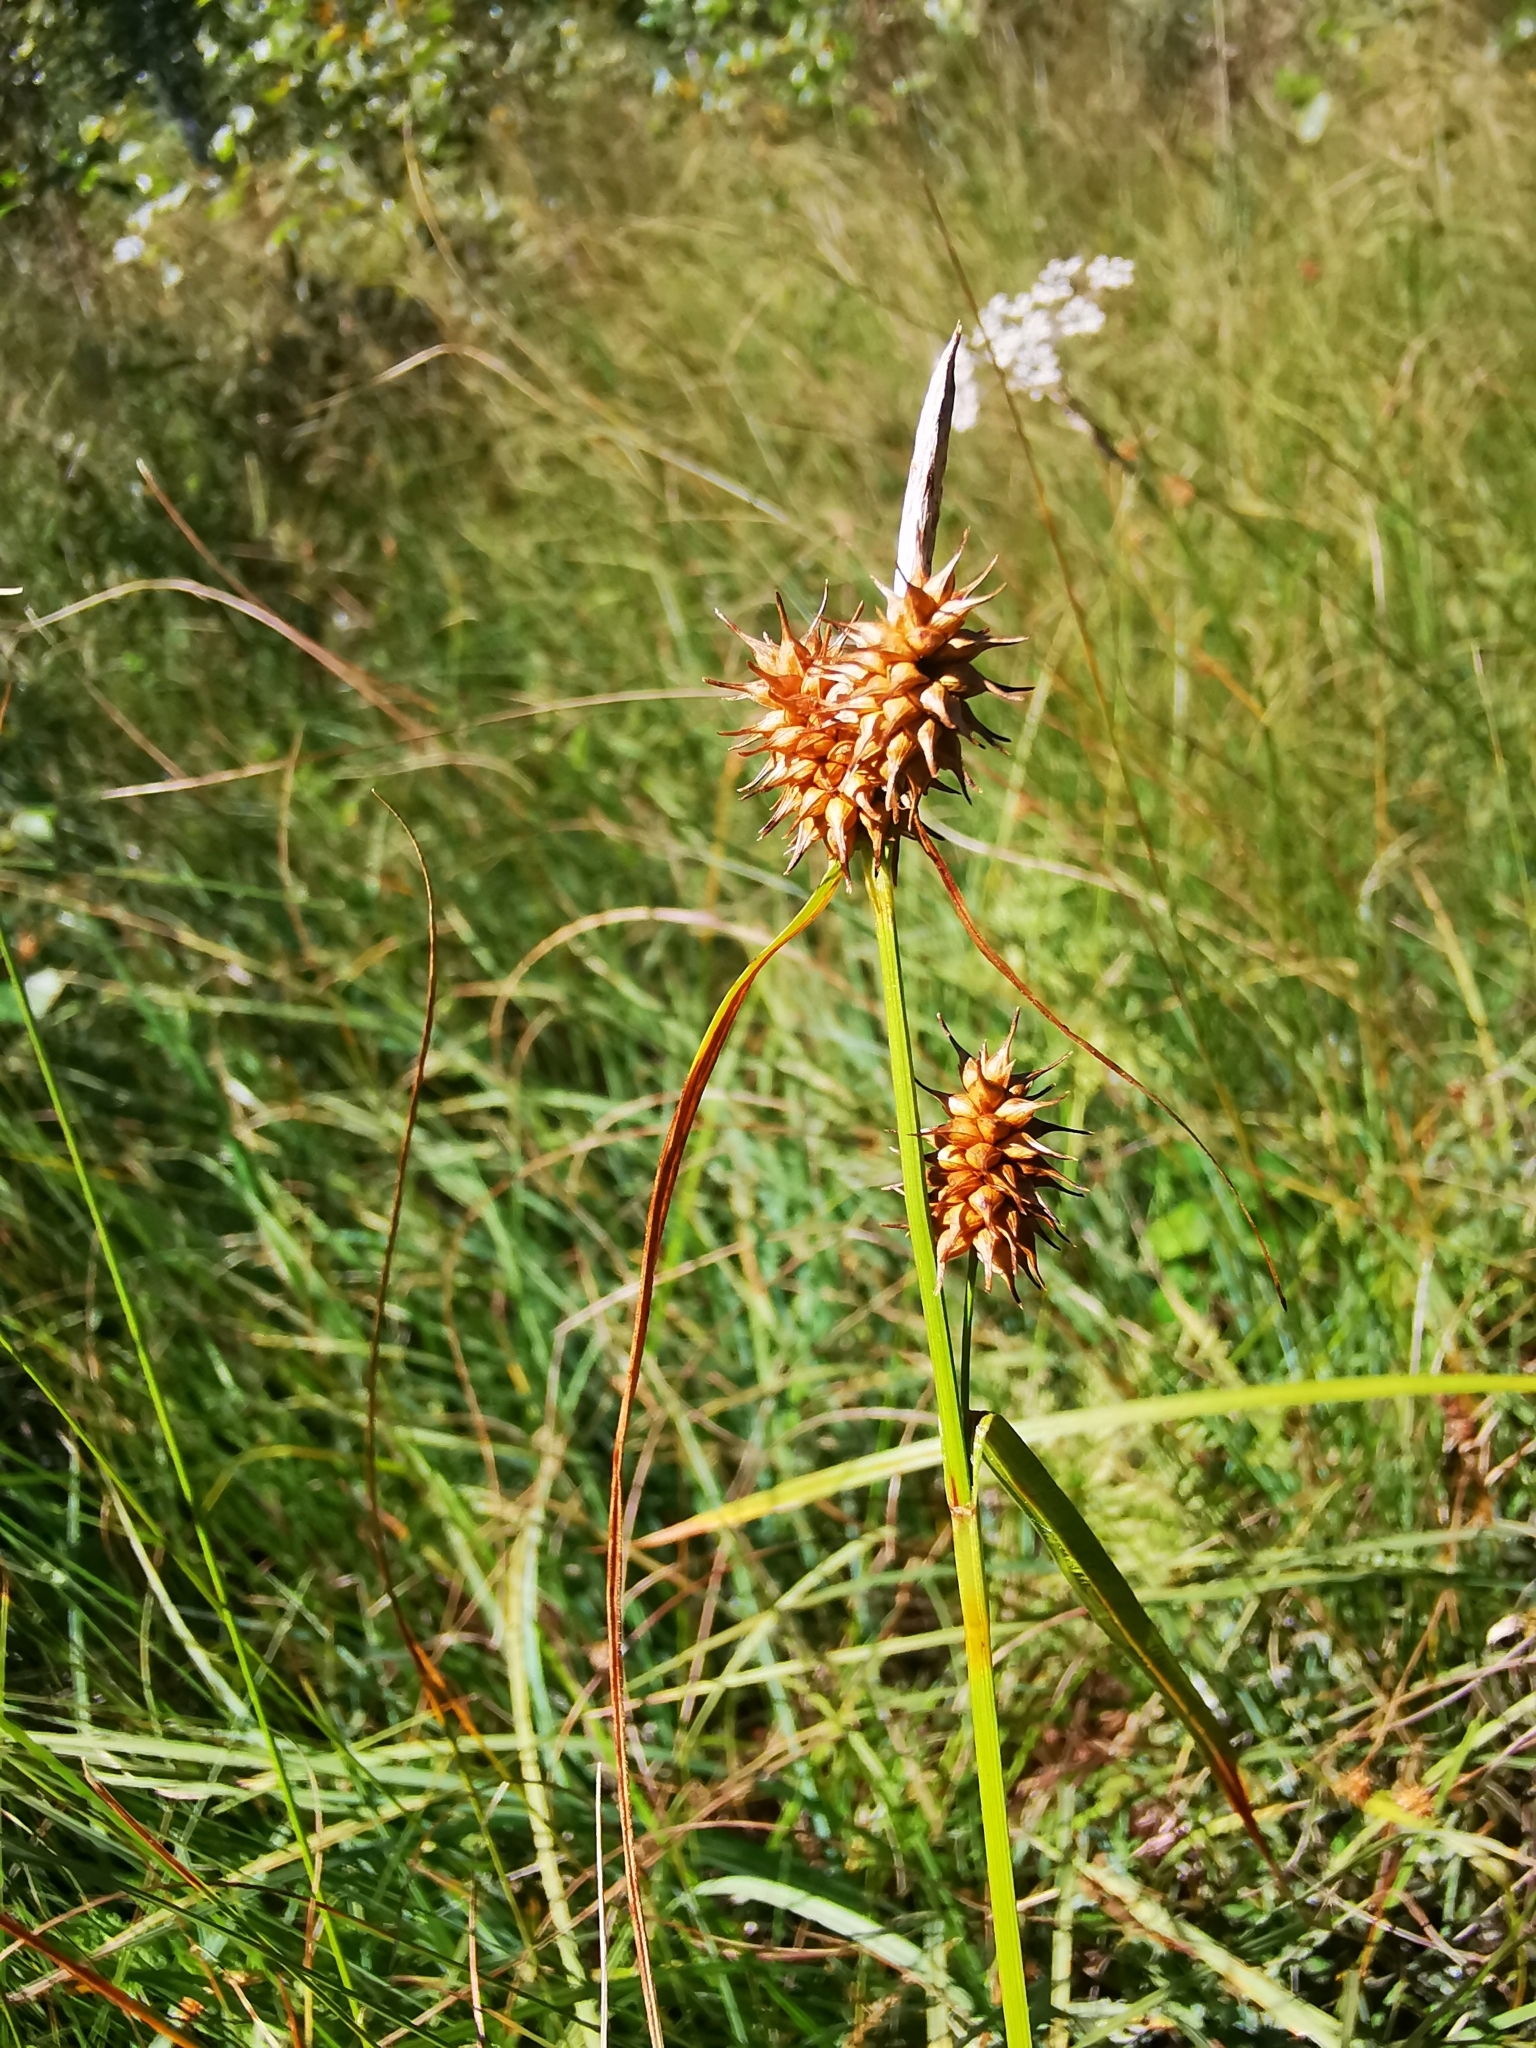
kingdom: Plantae
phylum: Tracheophyta
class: Liliopsida
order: Poales
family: Cyperaceae
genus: Carex
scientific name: Carex flava
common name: Large yellow-sedge
